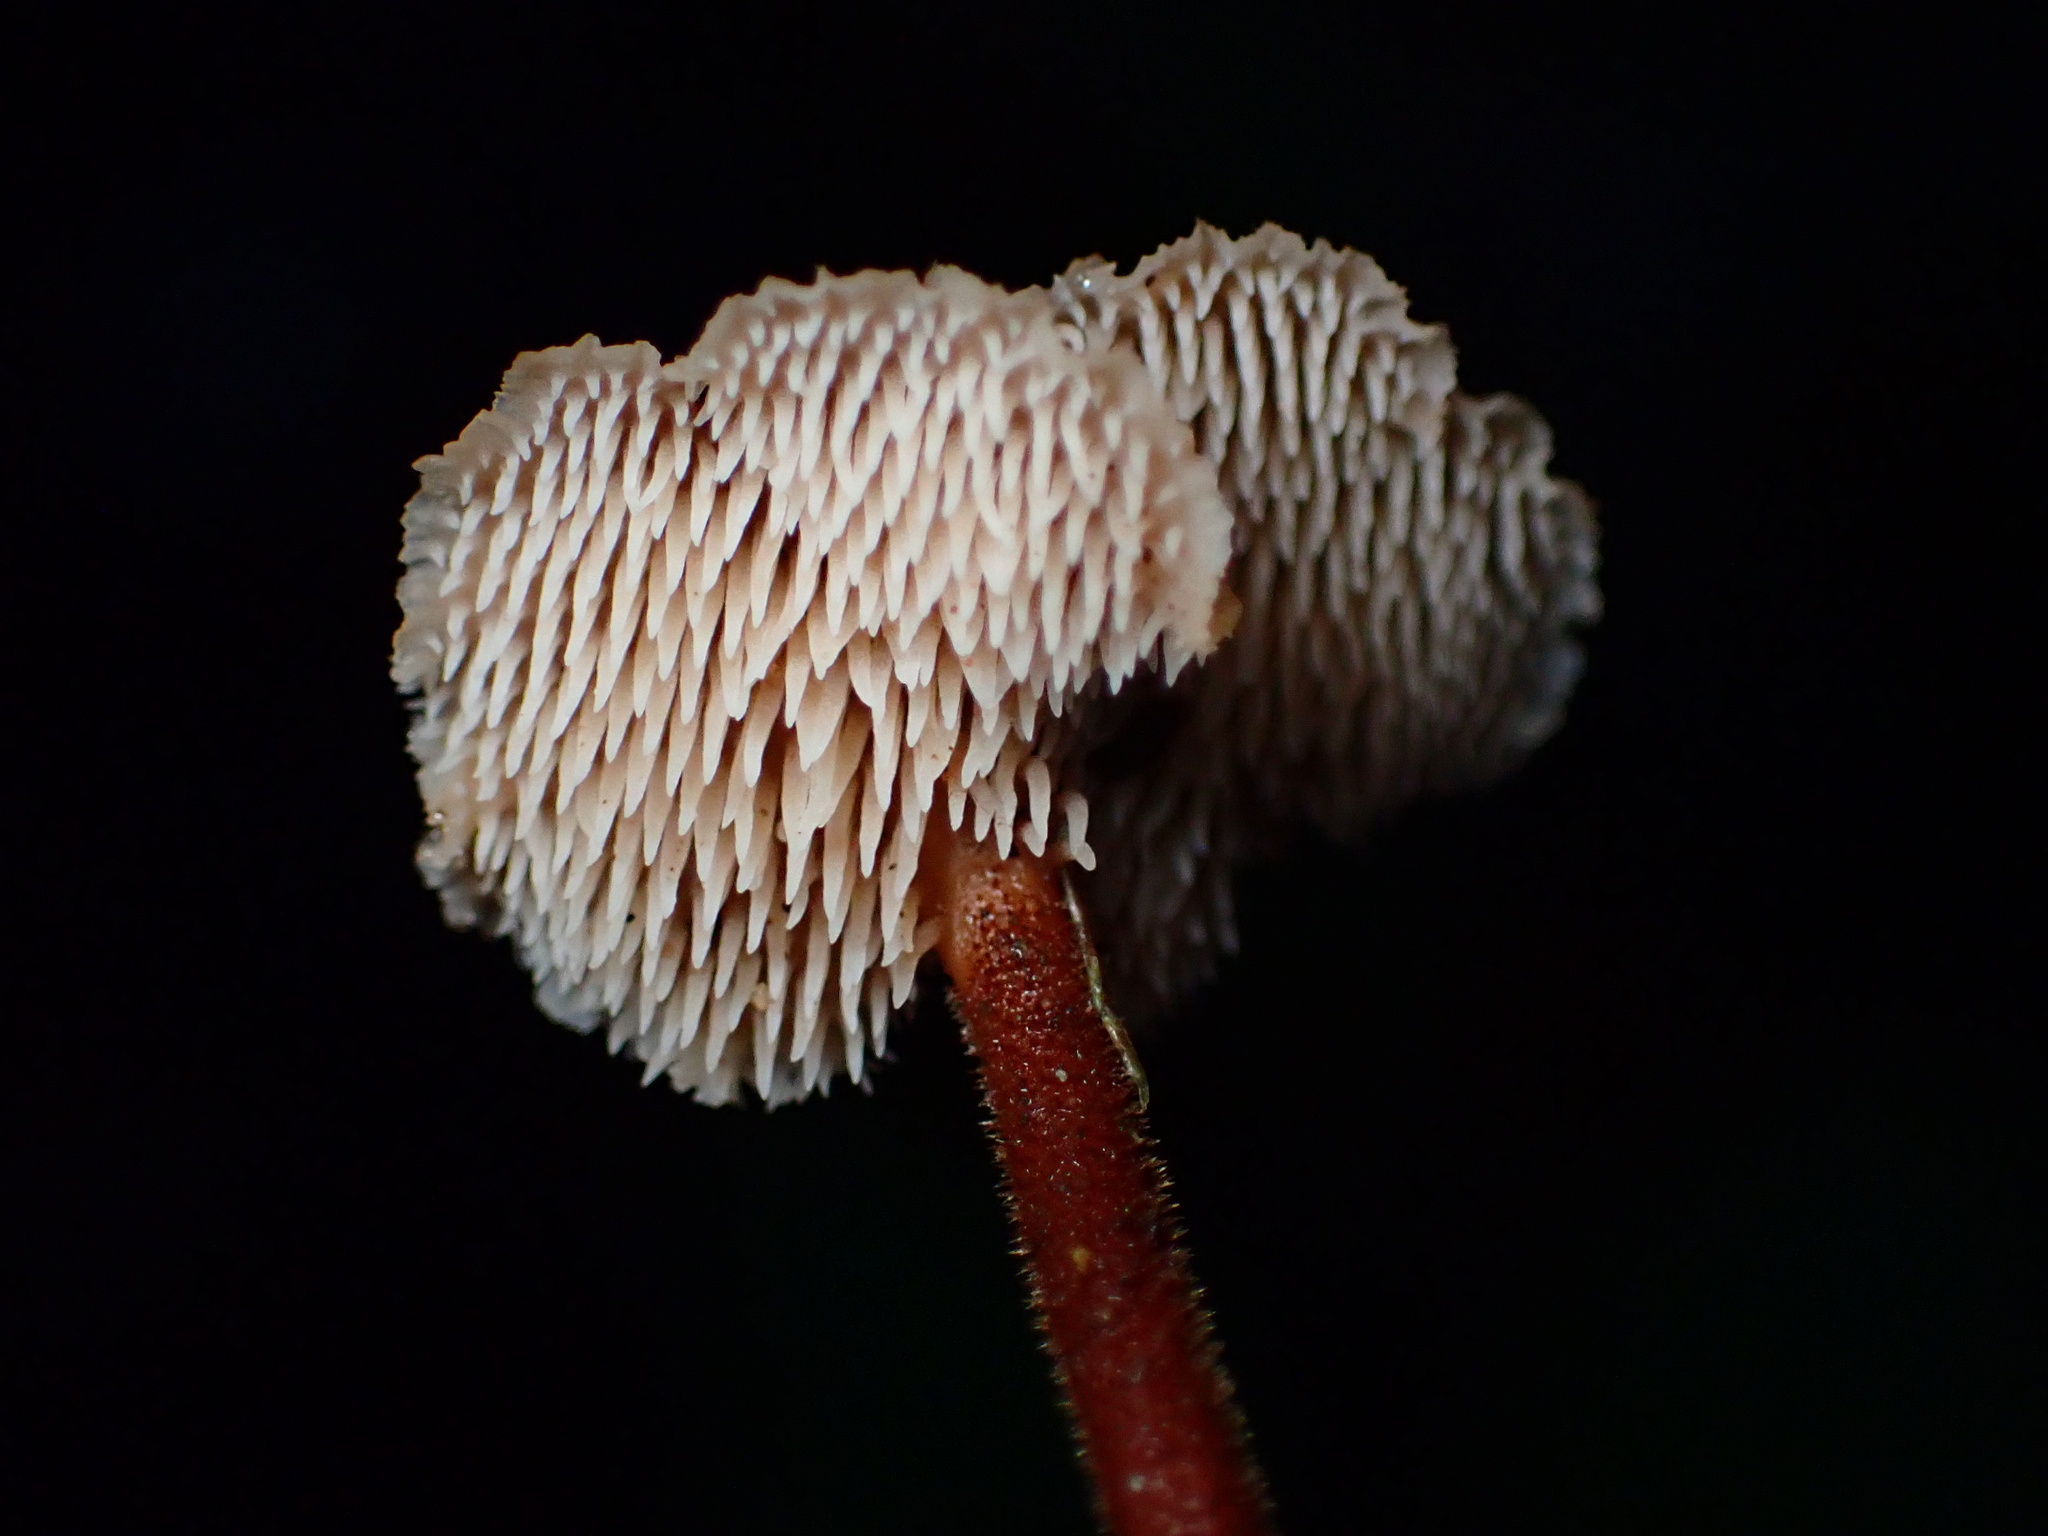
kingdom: Fungi
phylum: Basidiomycota
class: Agaricomycetes
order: Russulales
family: Auriscalpiaceae
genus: Auriscalpium
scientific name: Auriscalpium vulgare
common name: Earpick fungus
